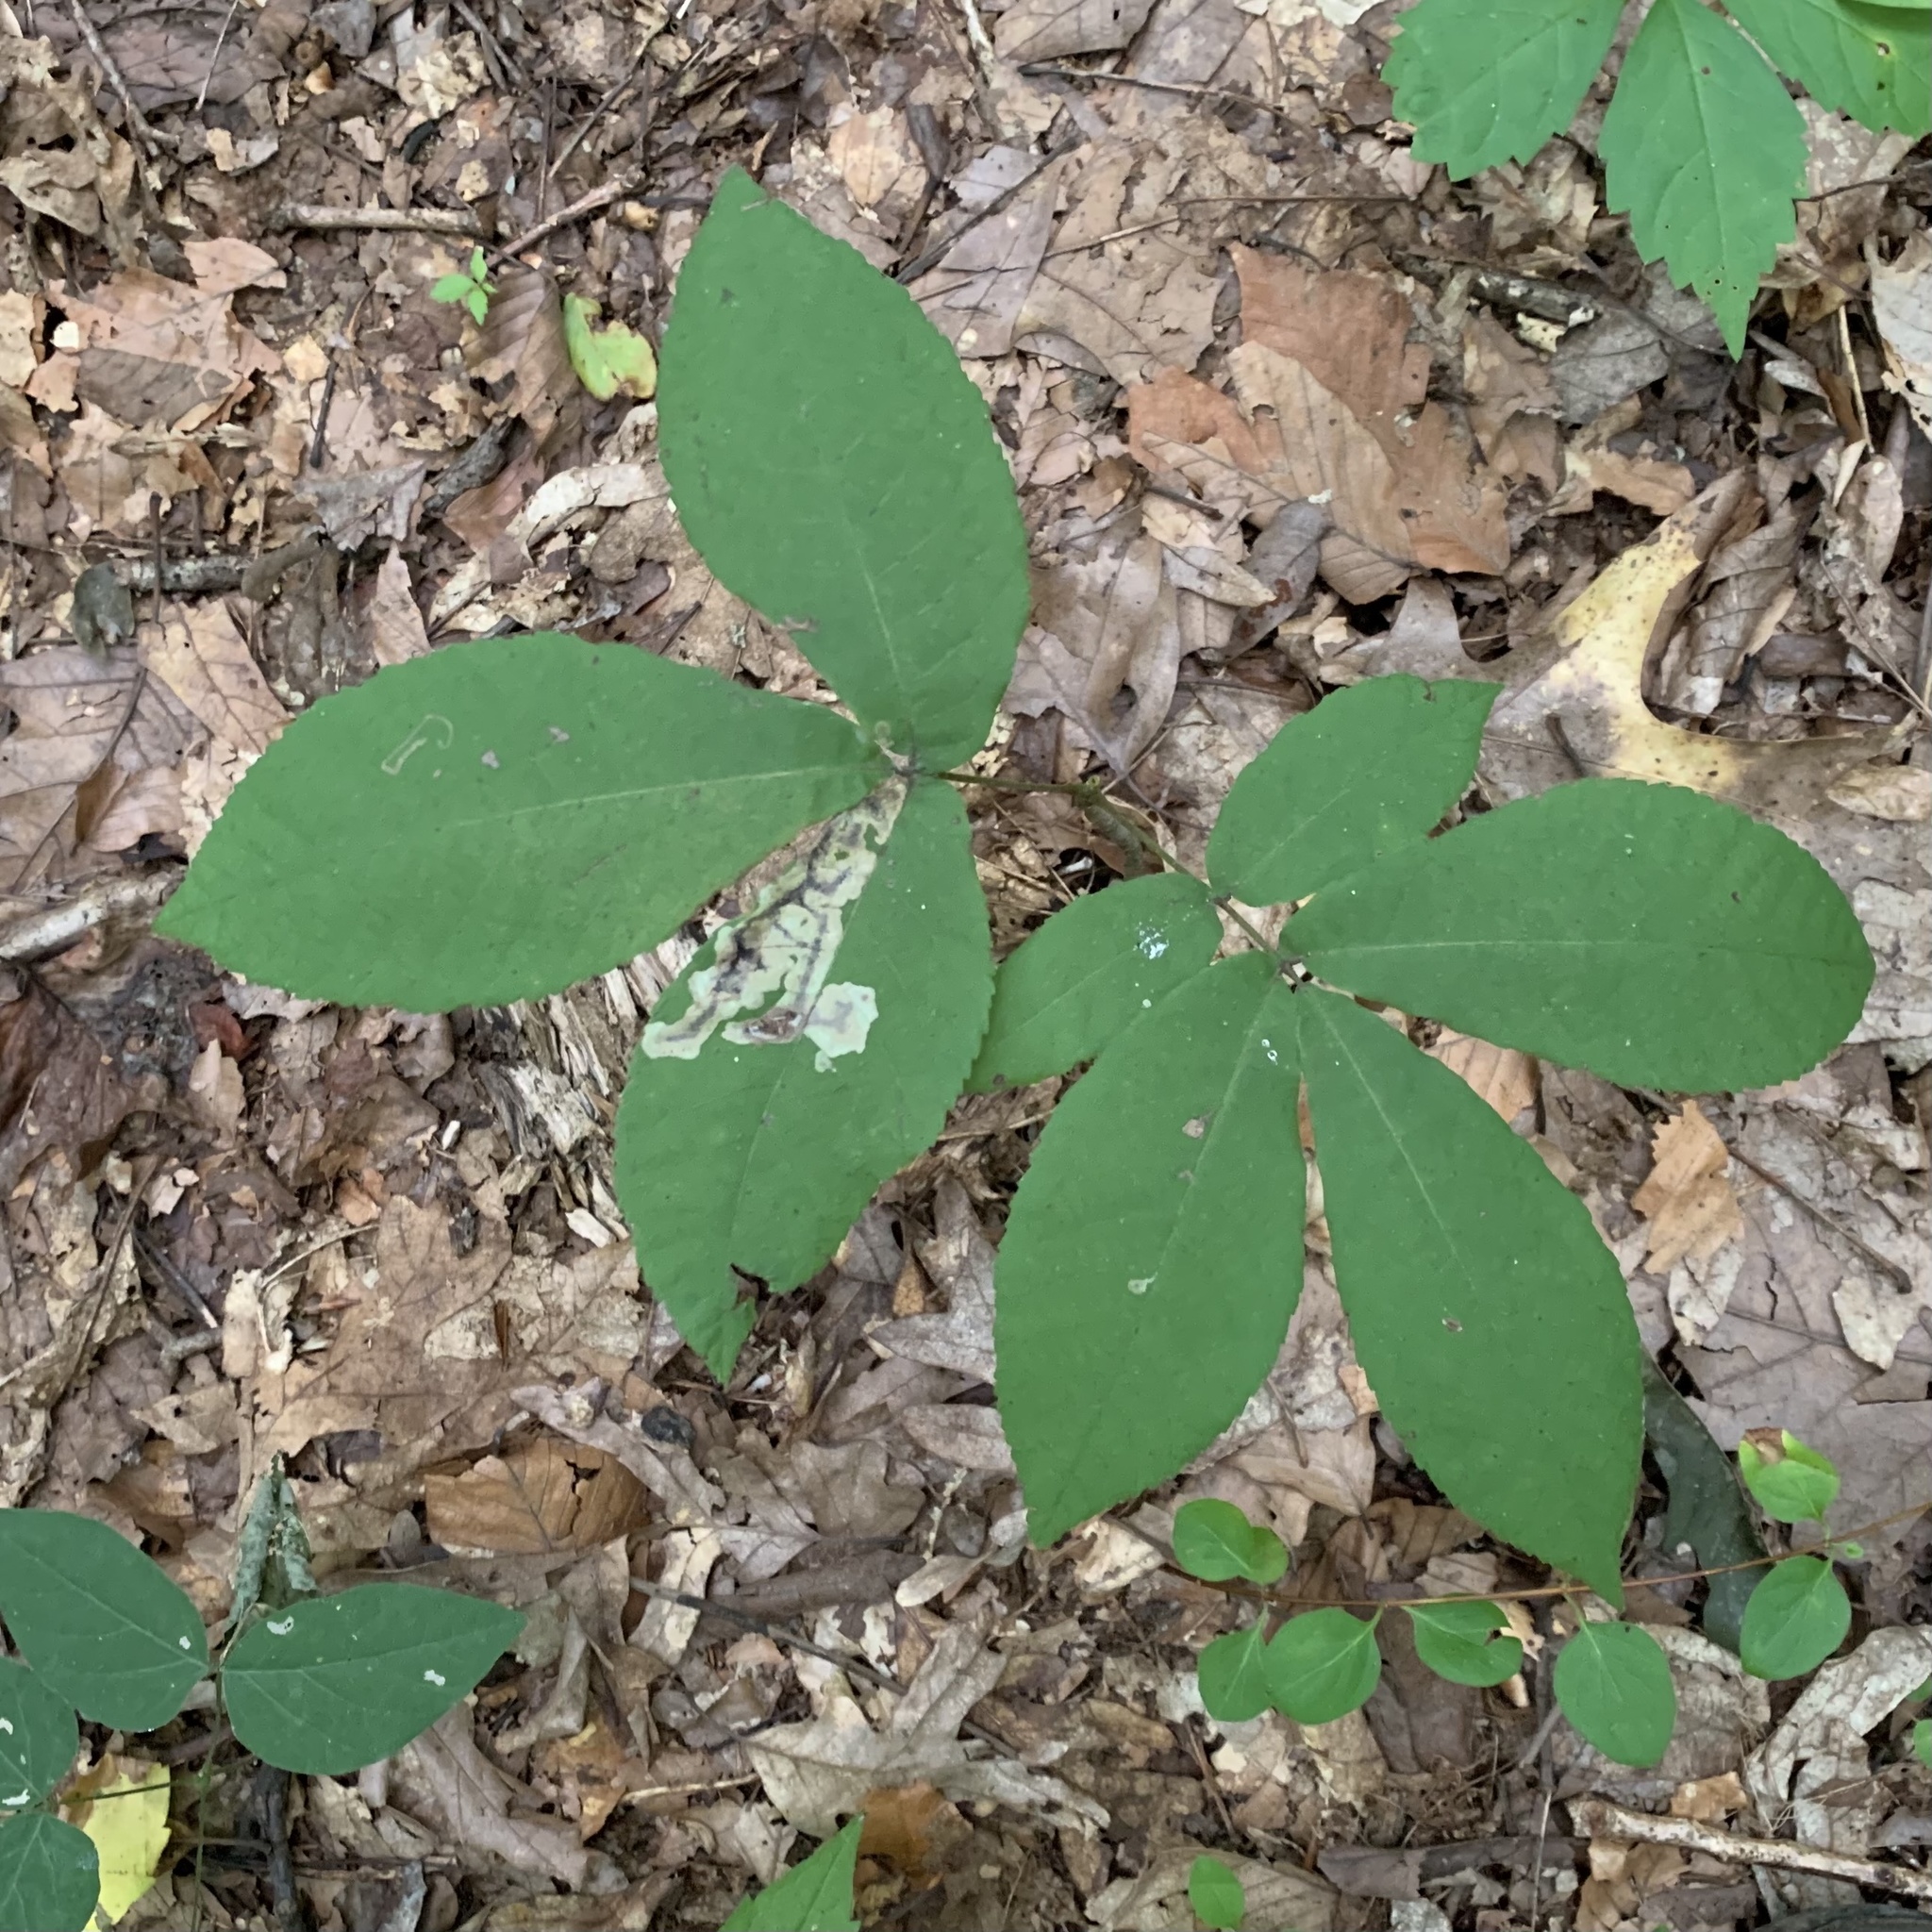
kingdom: Animalia
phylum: Arthropoda
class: Insecta
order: Lepidoptera
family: Gracillariidae
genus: Cameraria
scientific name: Cameraria caryaefoliella
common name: Pecan leafminer moth
